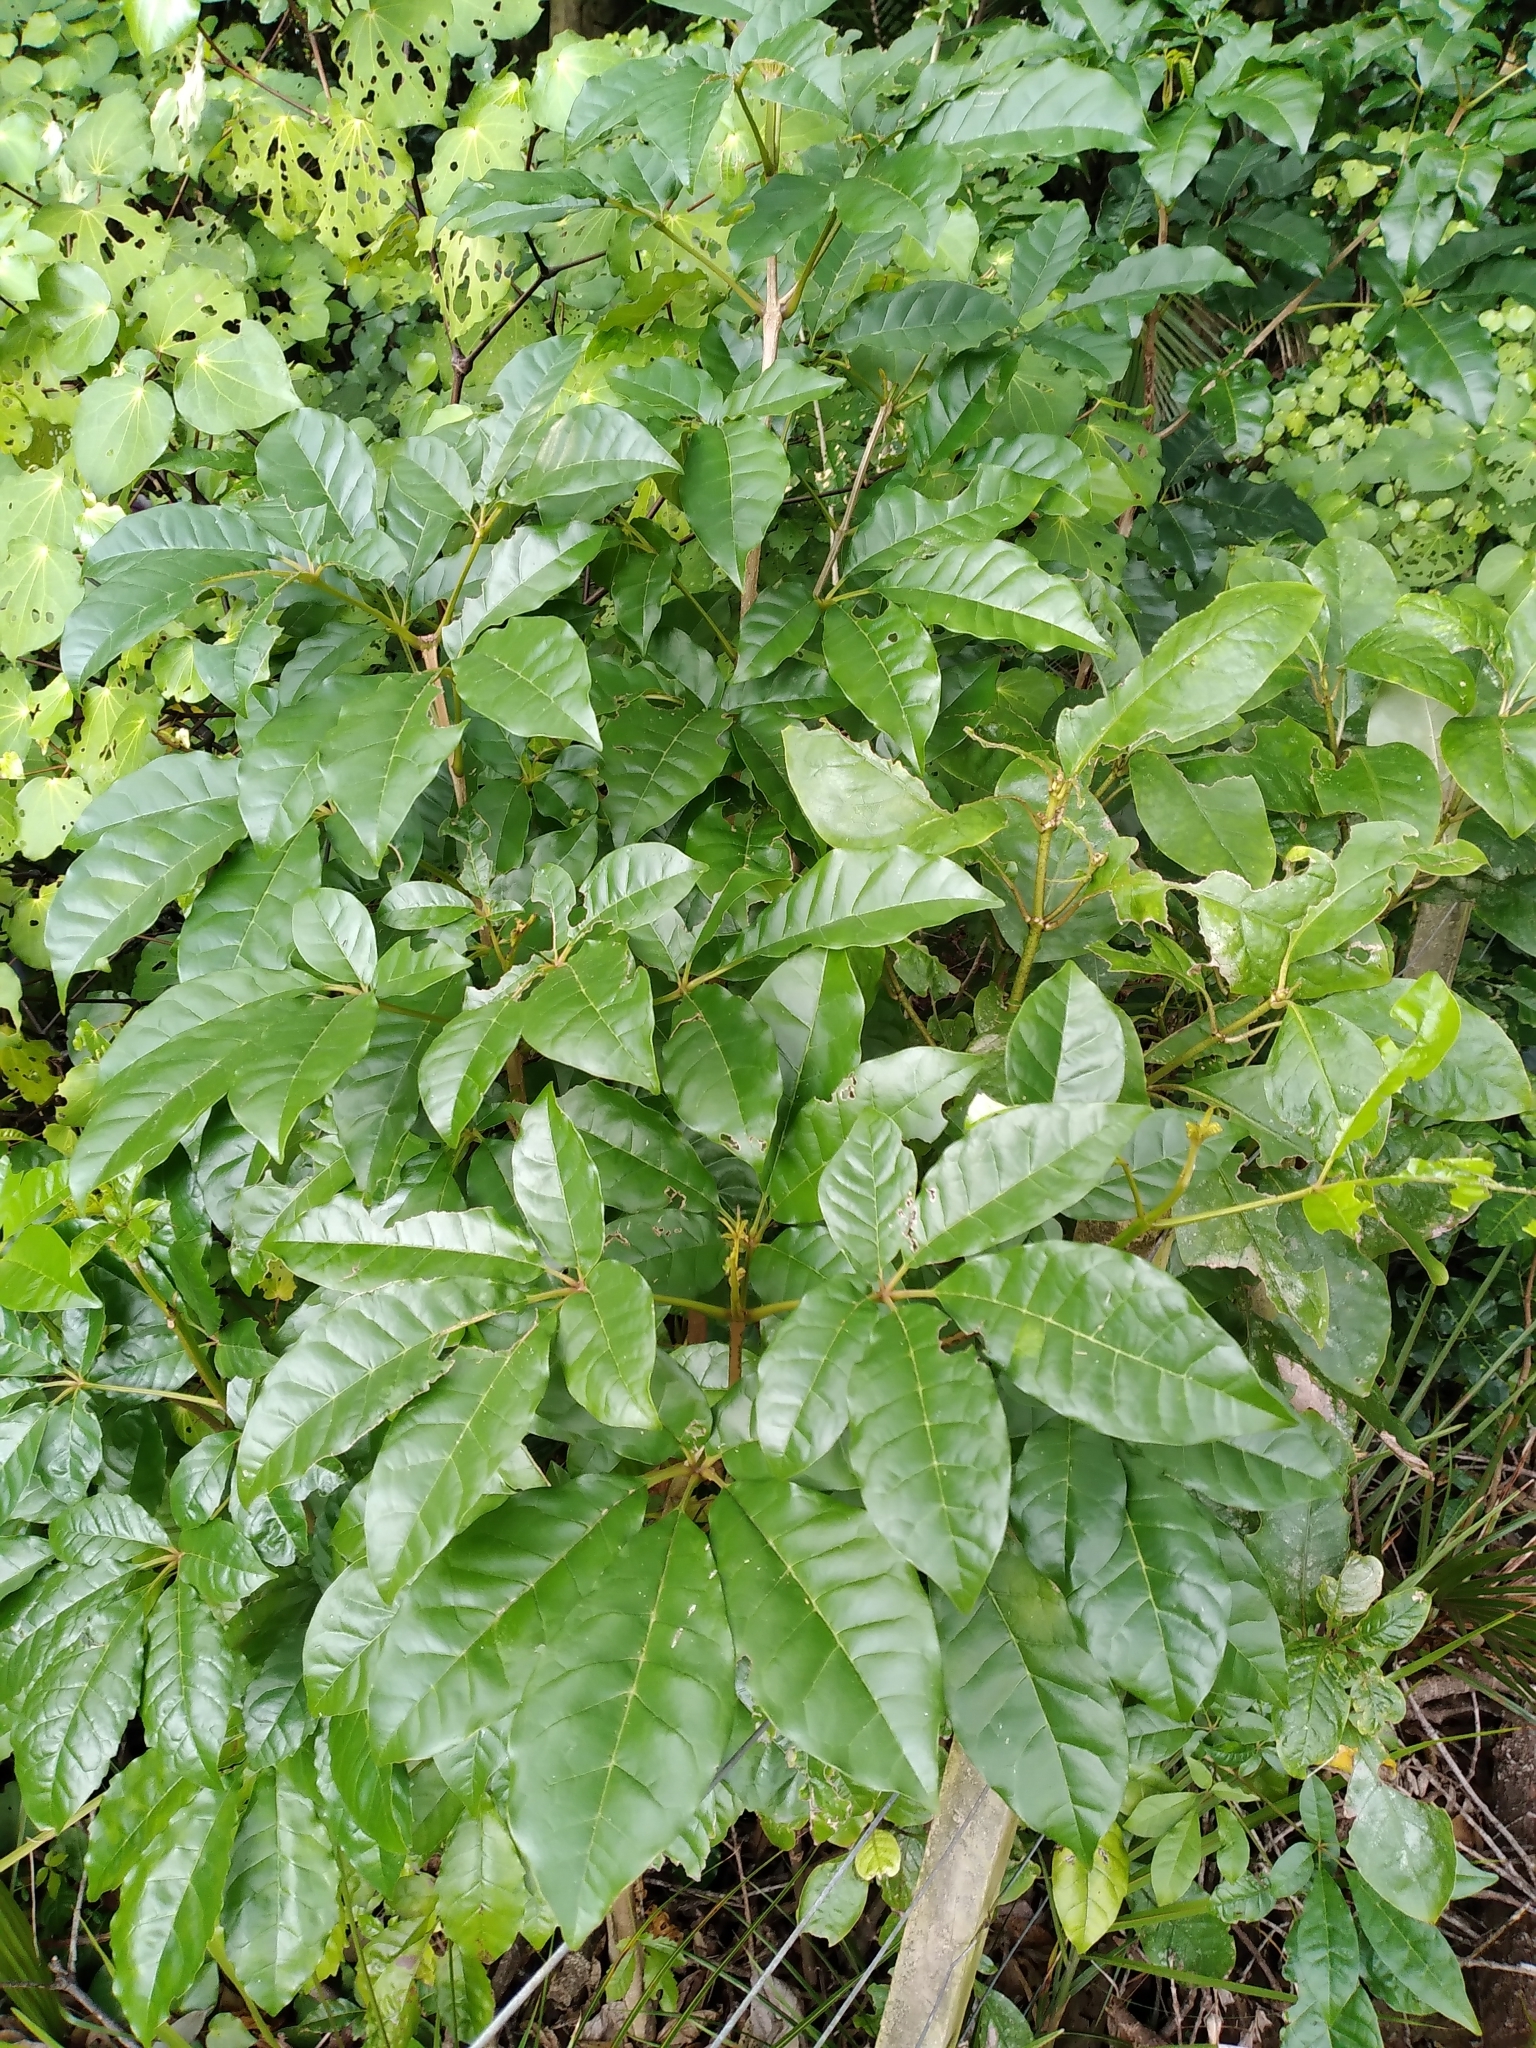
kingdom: Plantae
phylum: Tracheophyta
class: Magnoliopsida
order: Lamiales
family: Lamiaceae
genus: Vitex
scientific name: Vitex lucens
